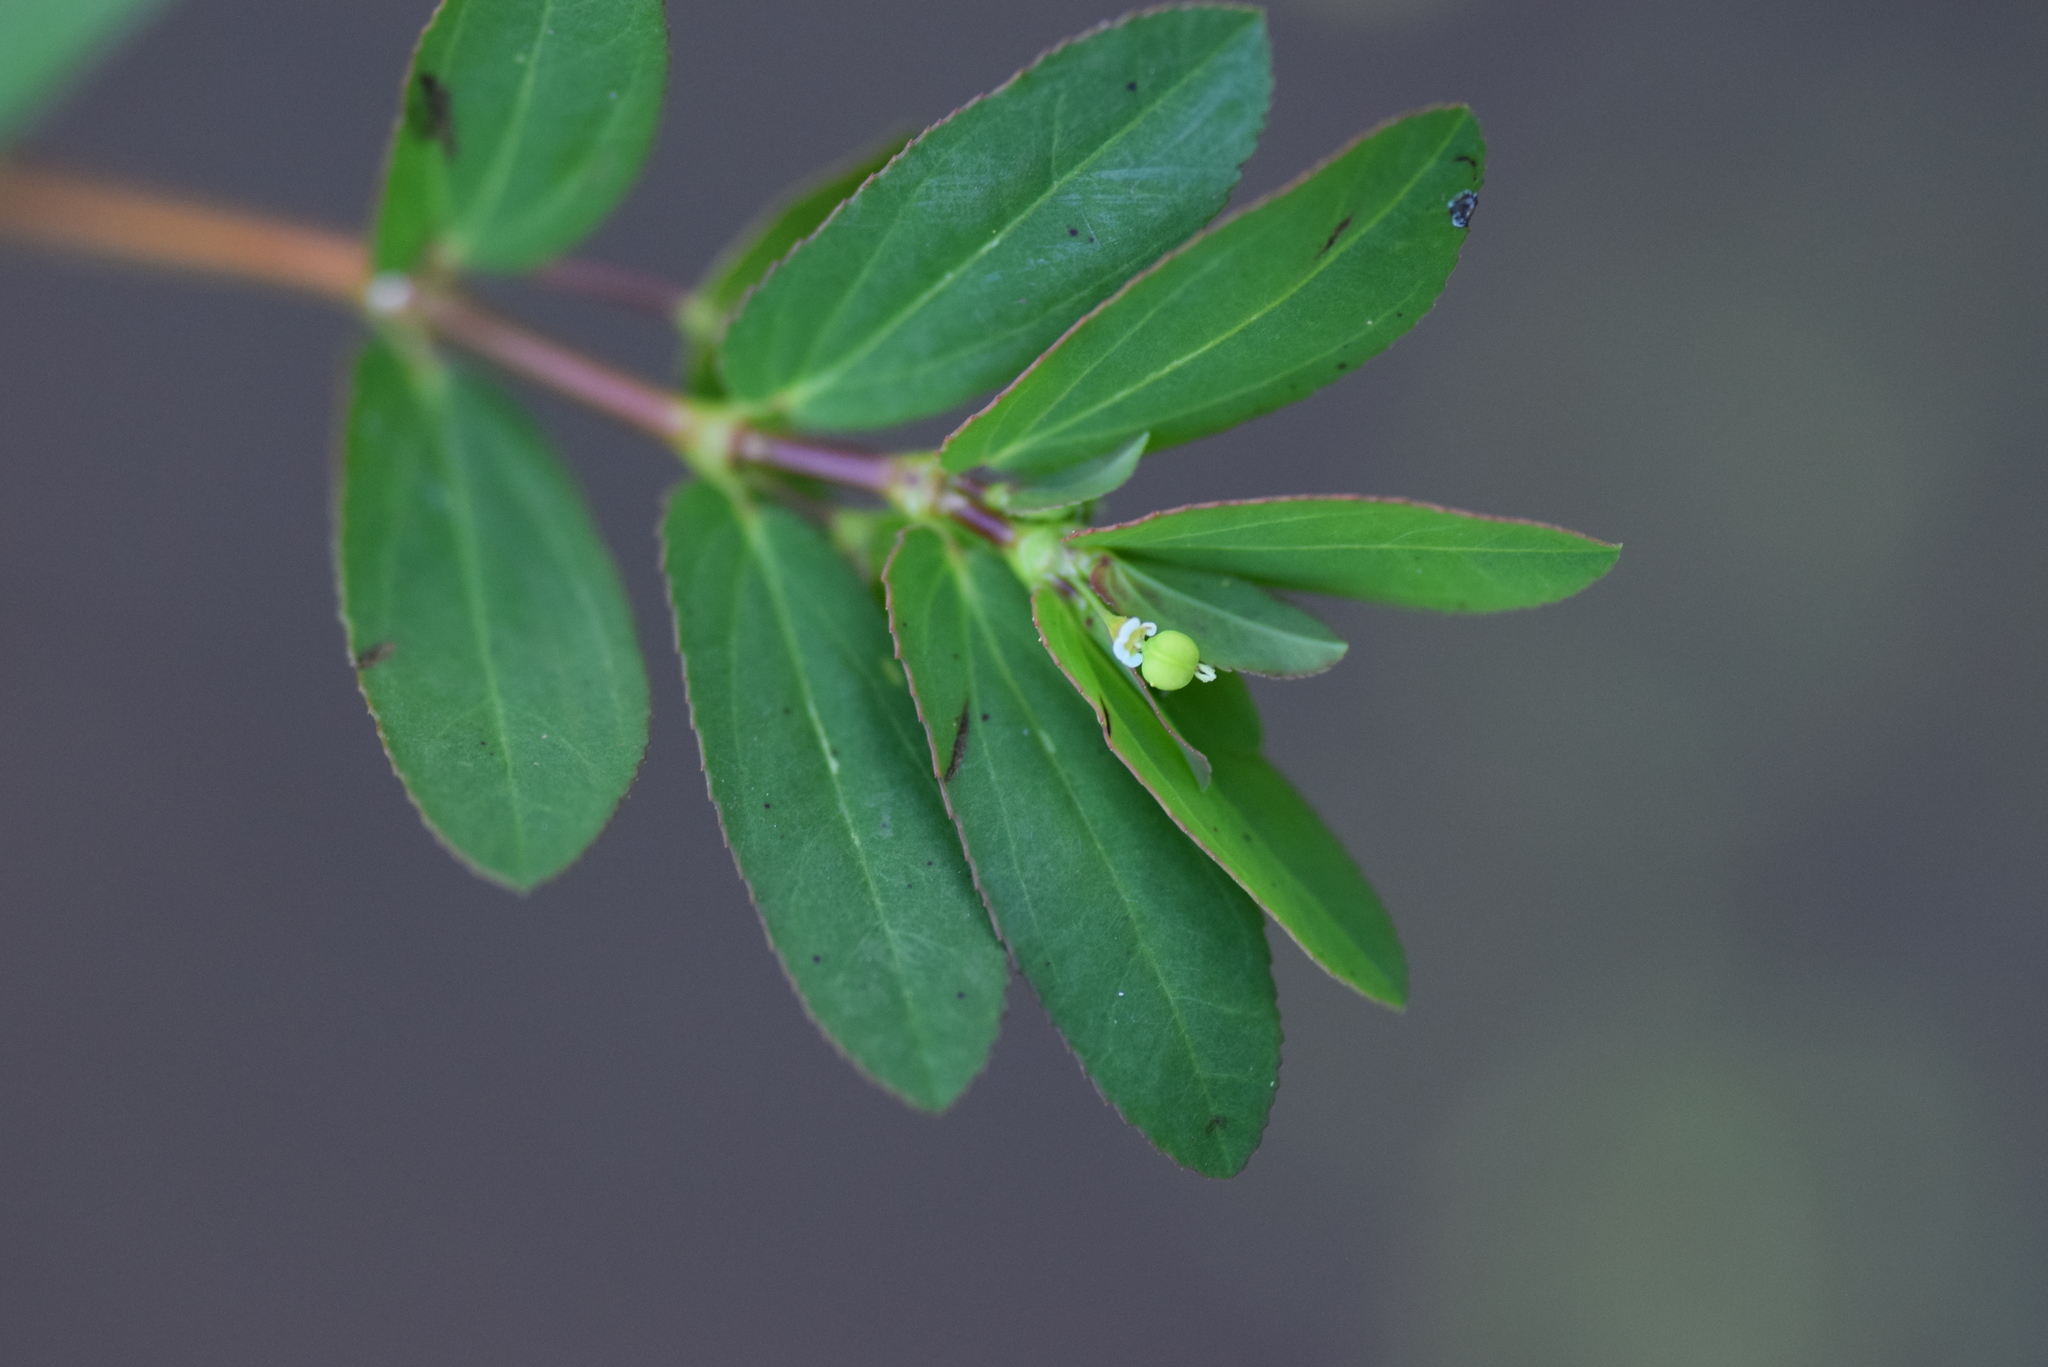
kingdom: Plantae
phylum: Tracheophyta
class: Magnoliopsida
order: Malpighiales
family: Euphorbiaceae
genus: Euphorbia
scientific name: Euphorbia hyssopifolia
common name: Hyssopleaf sandmat
